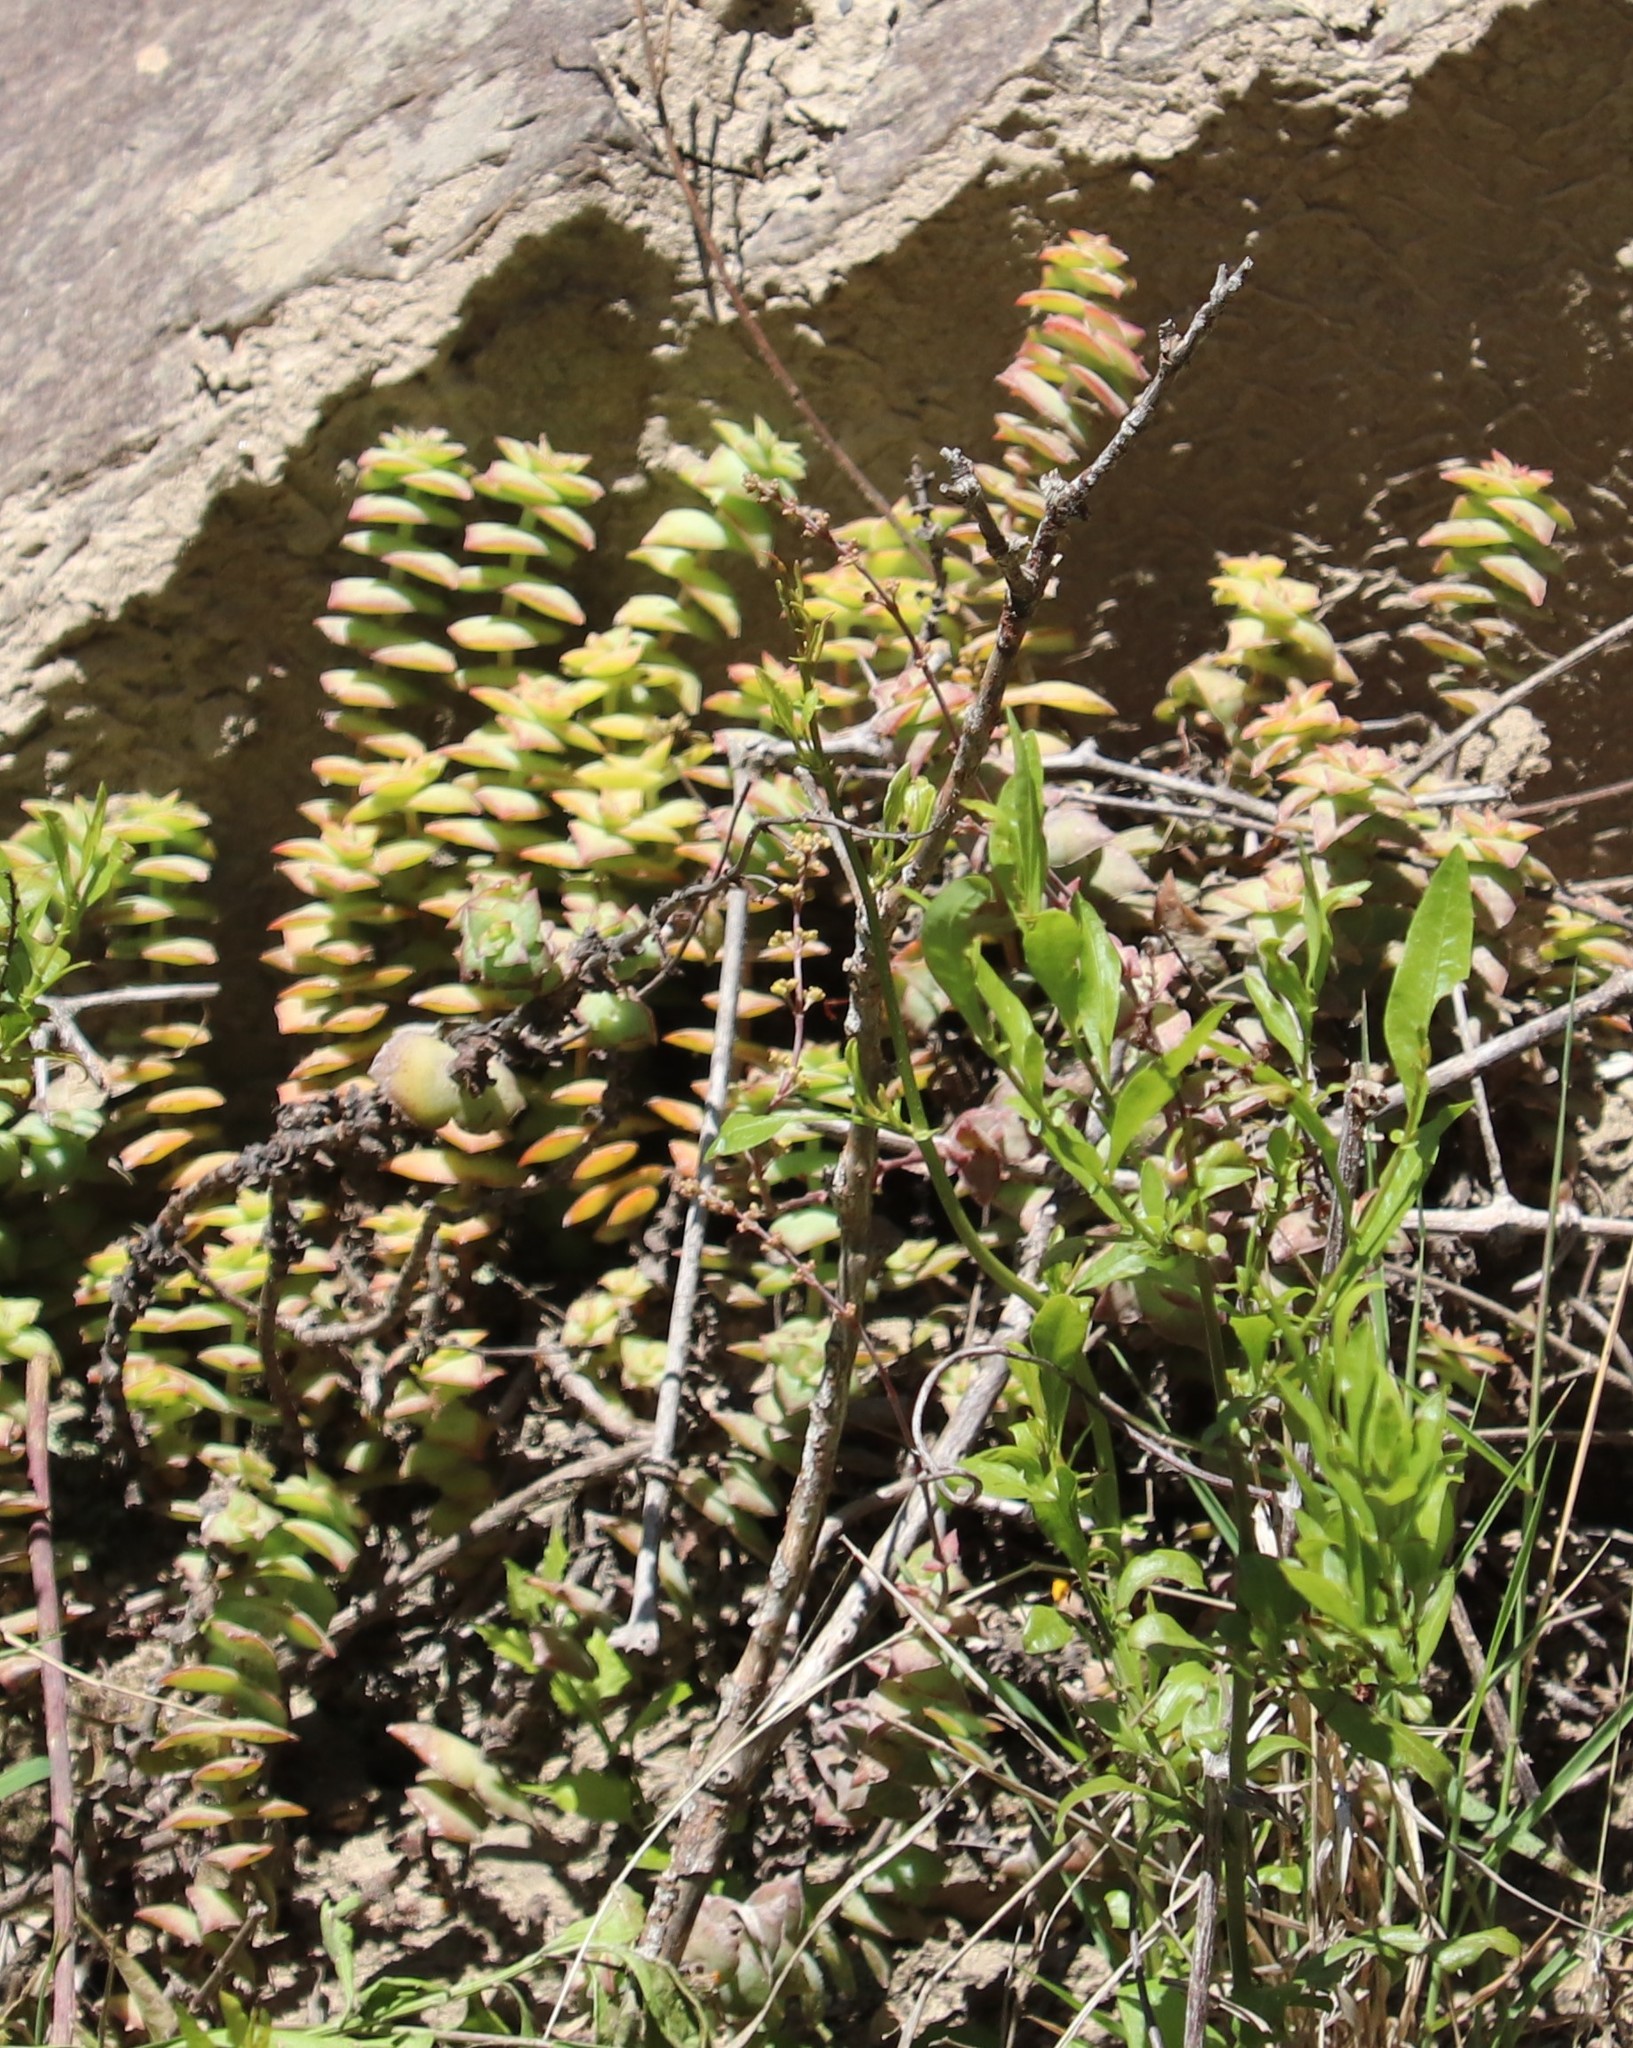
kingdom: Plantae
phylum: Tracheophyta
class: Magnoliopsida
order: Saxifragales
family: Crassulaceae
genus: Crassula
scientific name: Crassula perforata
